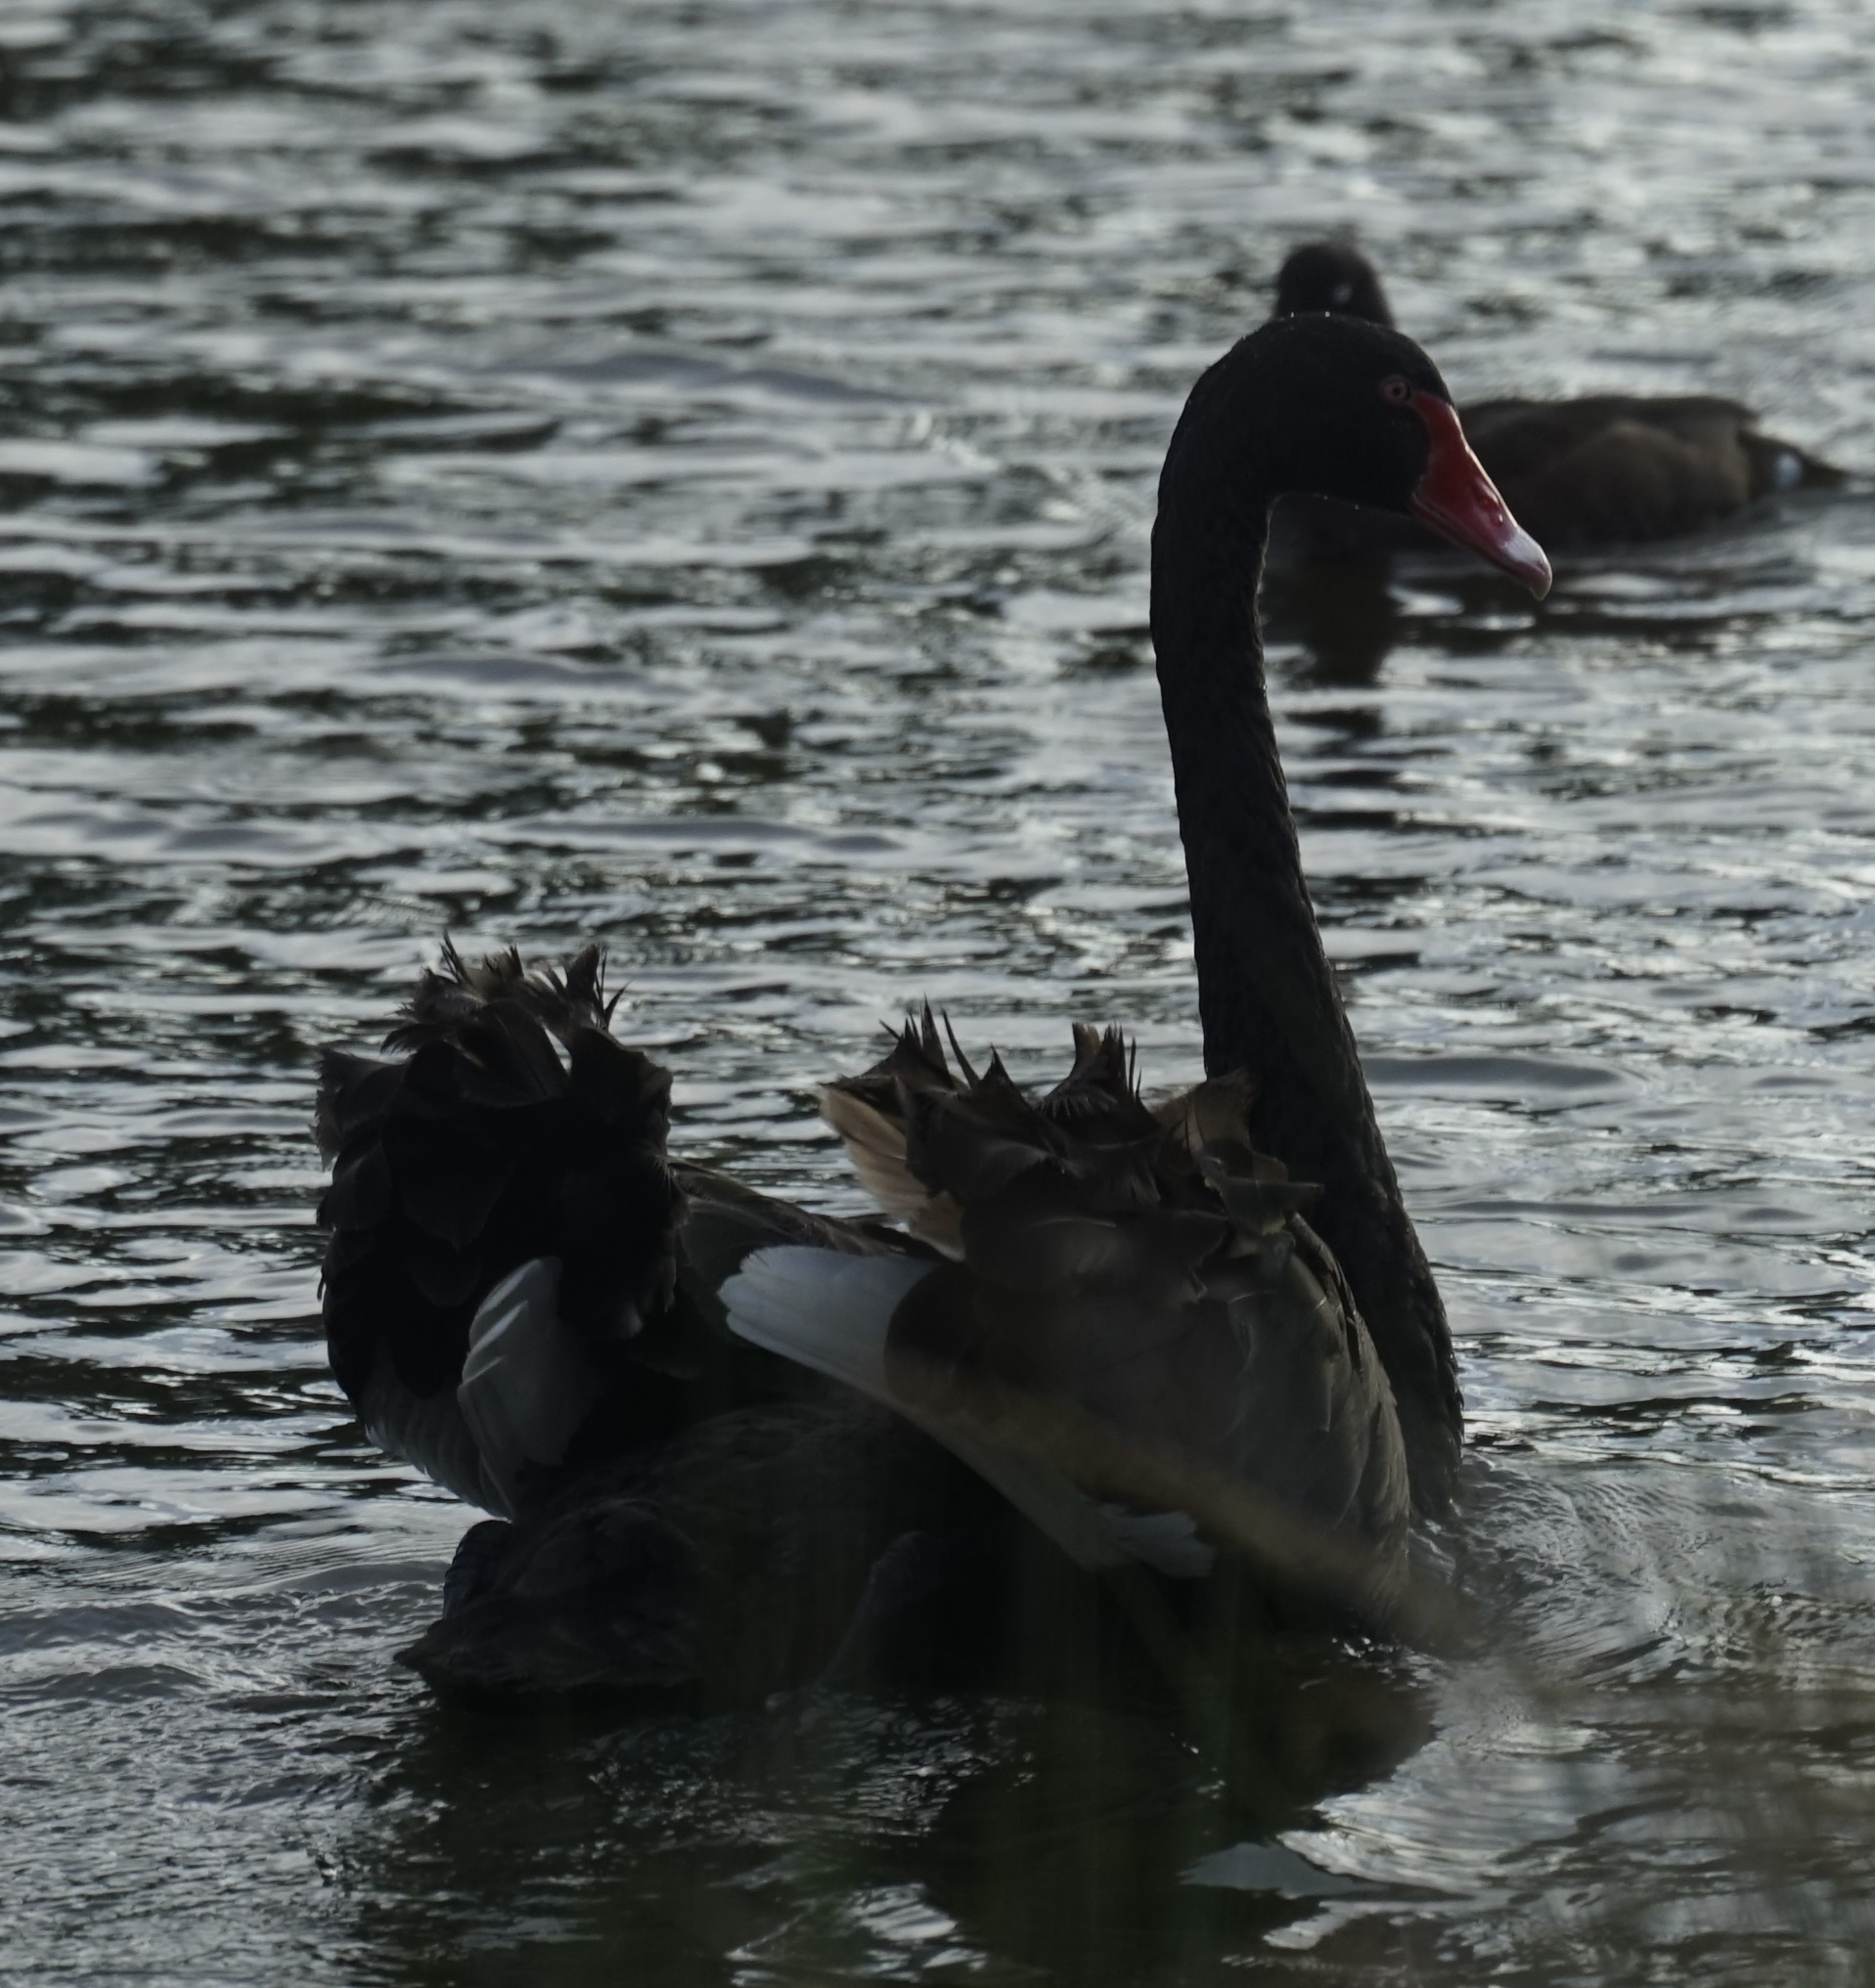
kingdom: Animalia
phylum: Chordata
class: Aves
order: Anseriformes
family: Anatidae
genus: Cygnus
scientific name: Cygnus atratus
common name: Black swan
